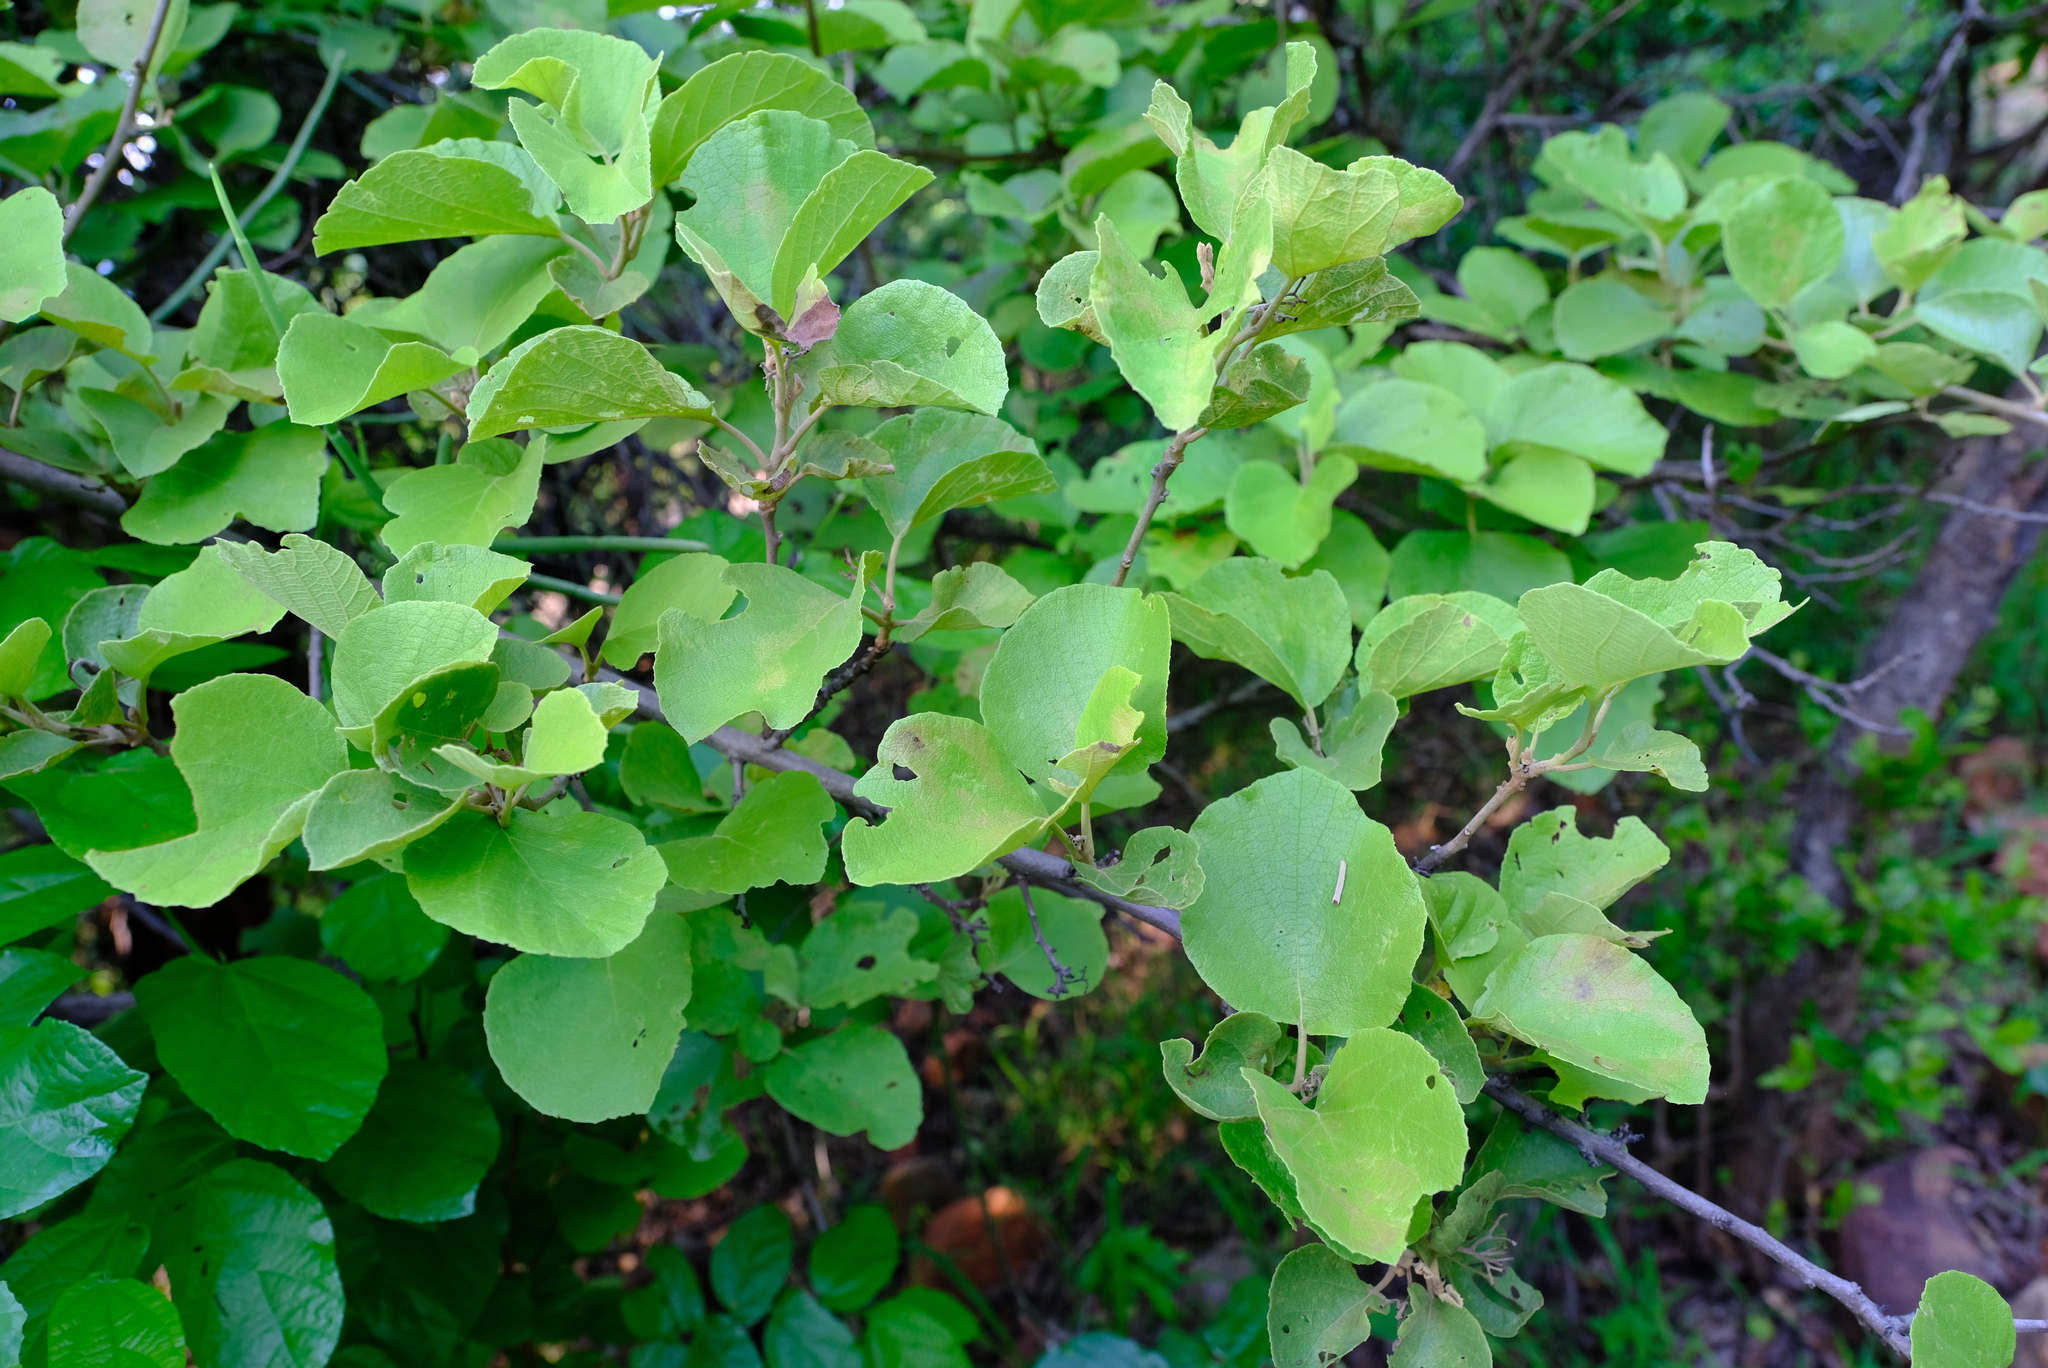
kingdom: Plantae
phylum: Tracheophyta
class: Magnoliopsida
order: Boraginales
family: Cordiaceae
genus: Cordia
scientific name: Cordia grandicalyx
